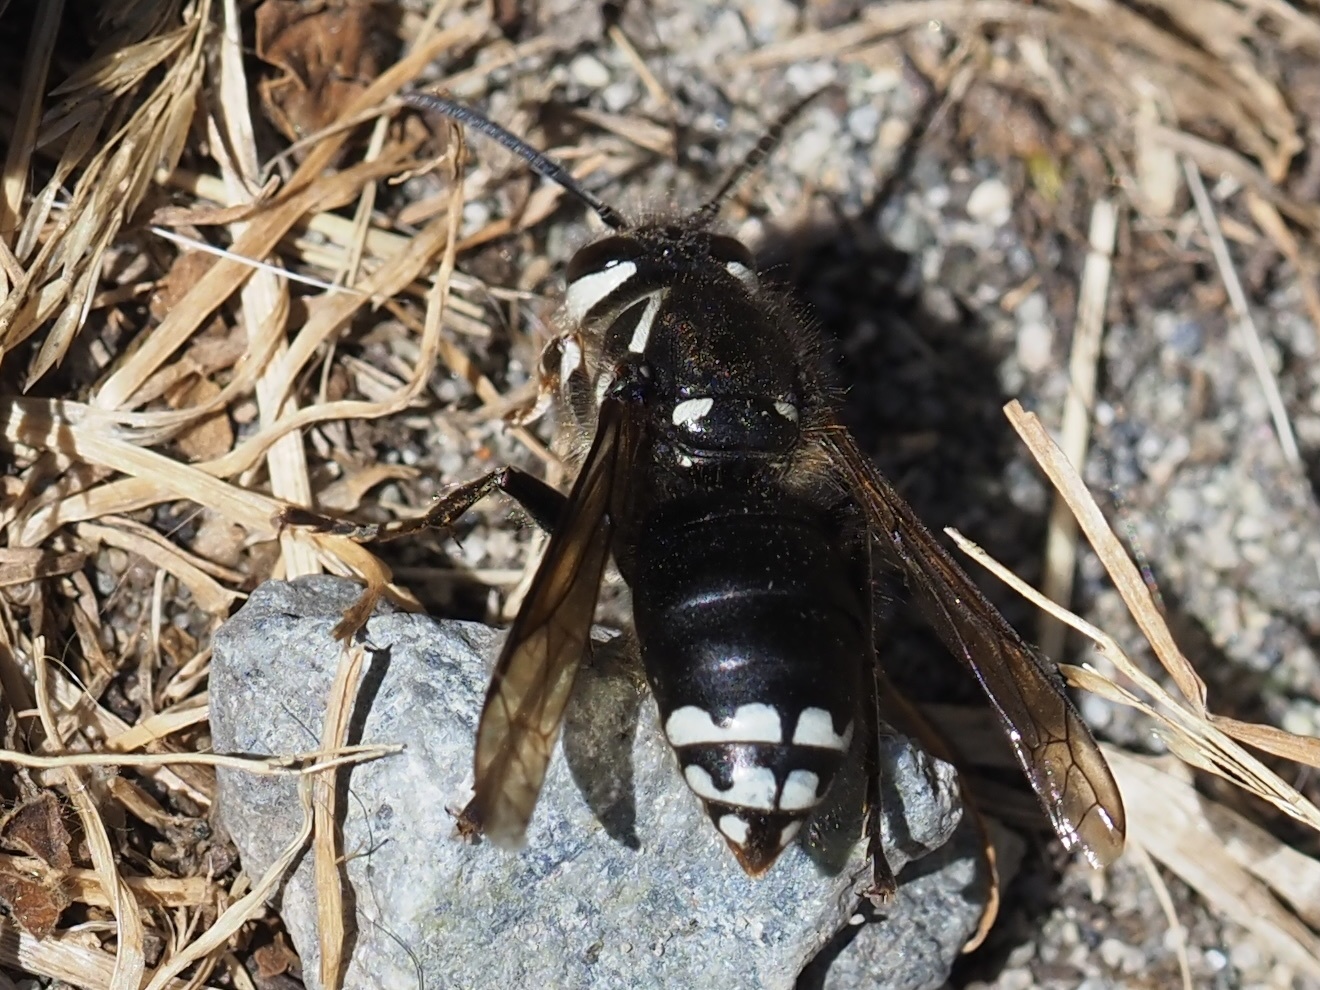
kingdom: Animalia
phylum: Arthropoda
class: Insecta
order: Hymenoptera
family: Vespidae
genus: Dolichovespula
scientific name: Dolichovespula maculata
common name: Bald-faced hornet
